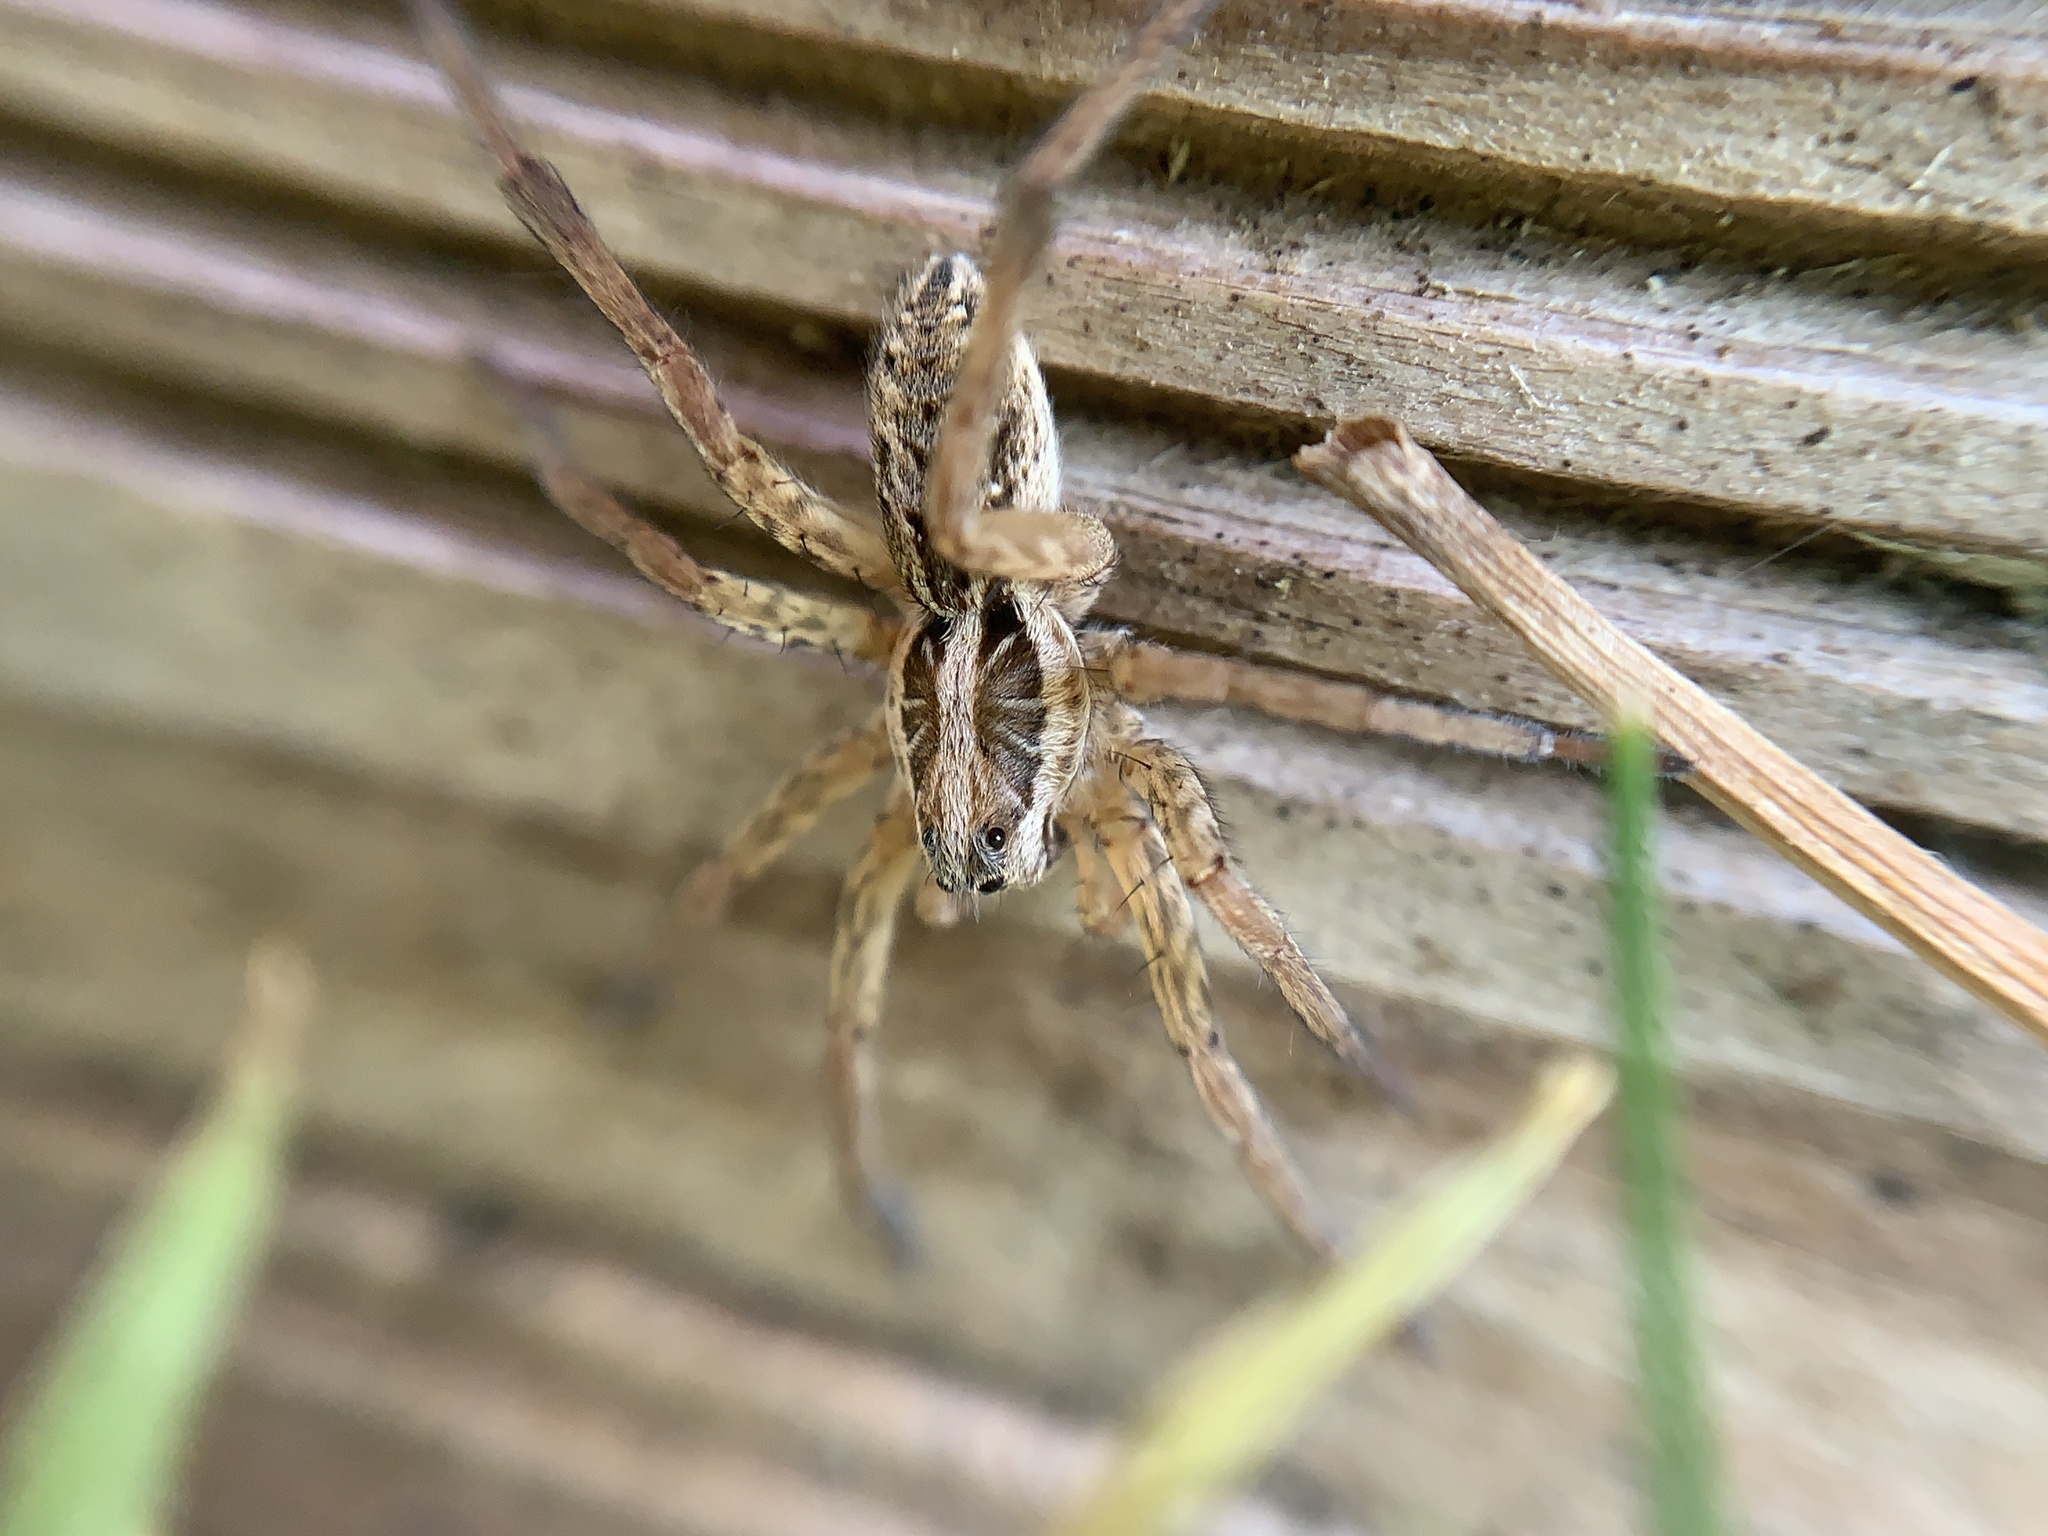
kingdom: Animalia
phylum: Arthropoda
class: Arachnida
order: Araneae
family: Lycosidae
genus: Hogna
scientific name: Hogna radiata
